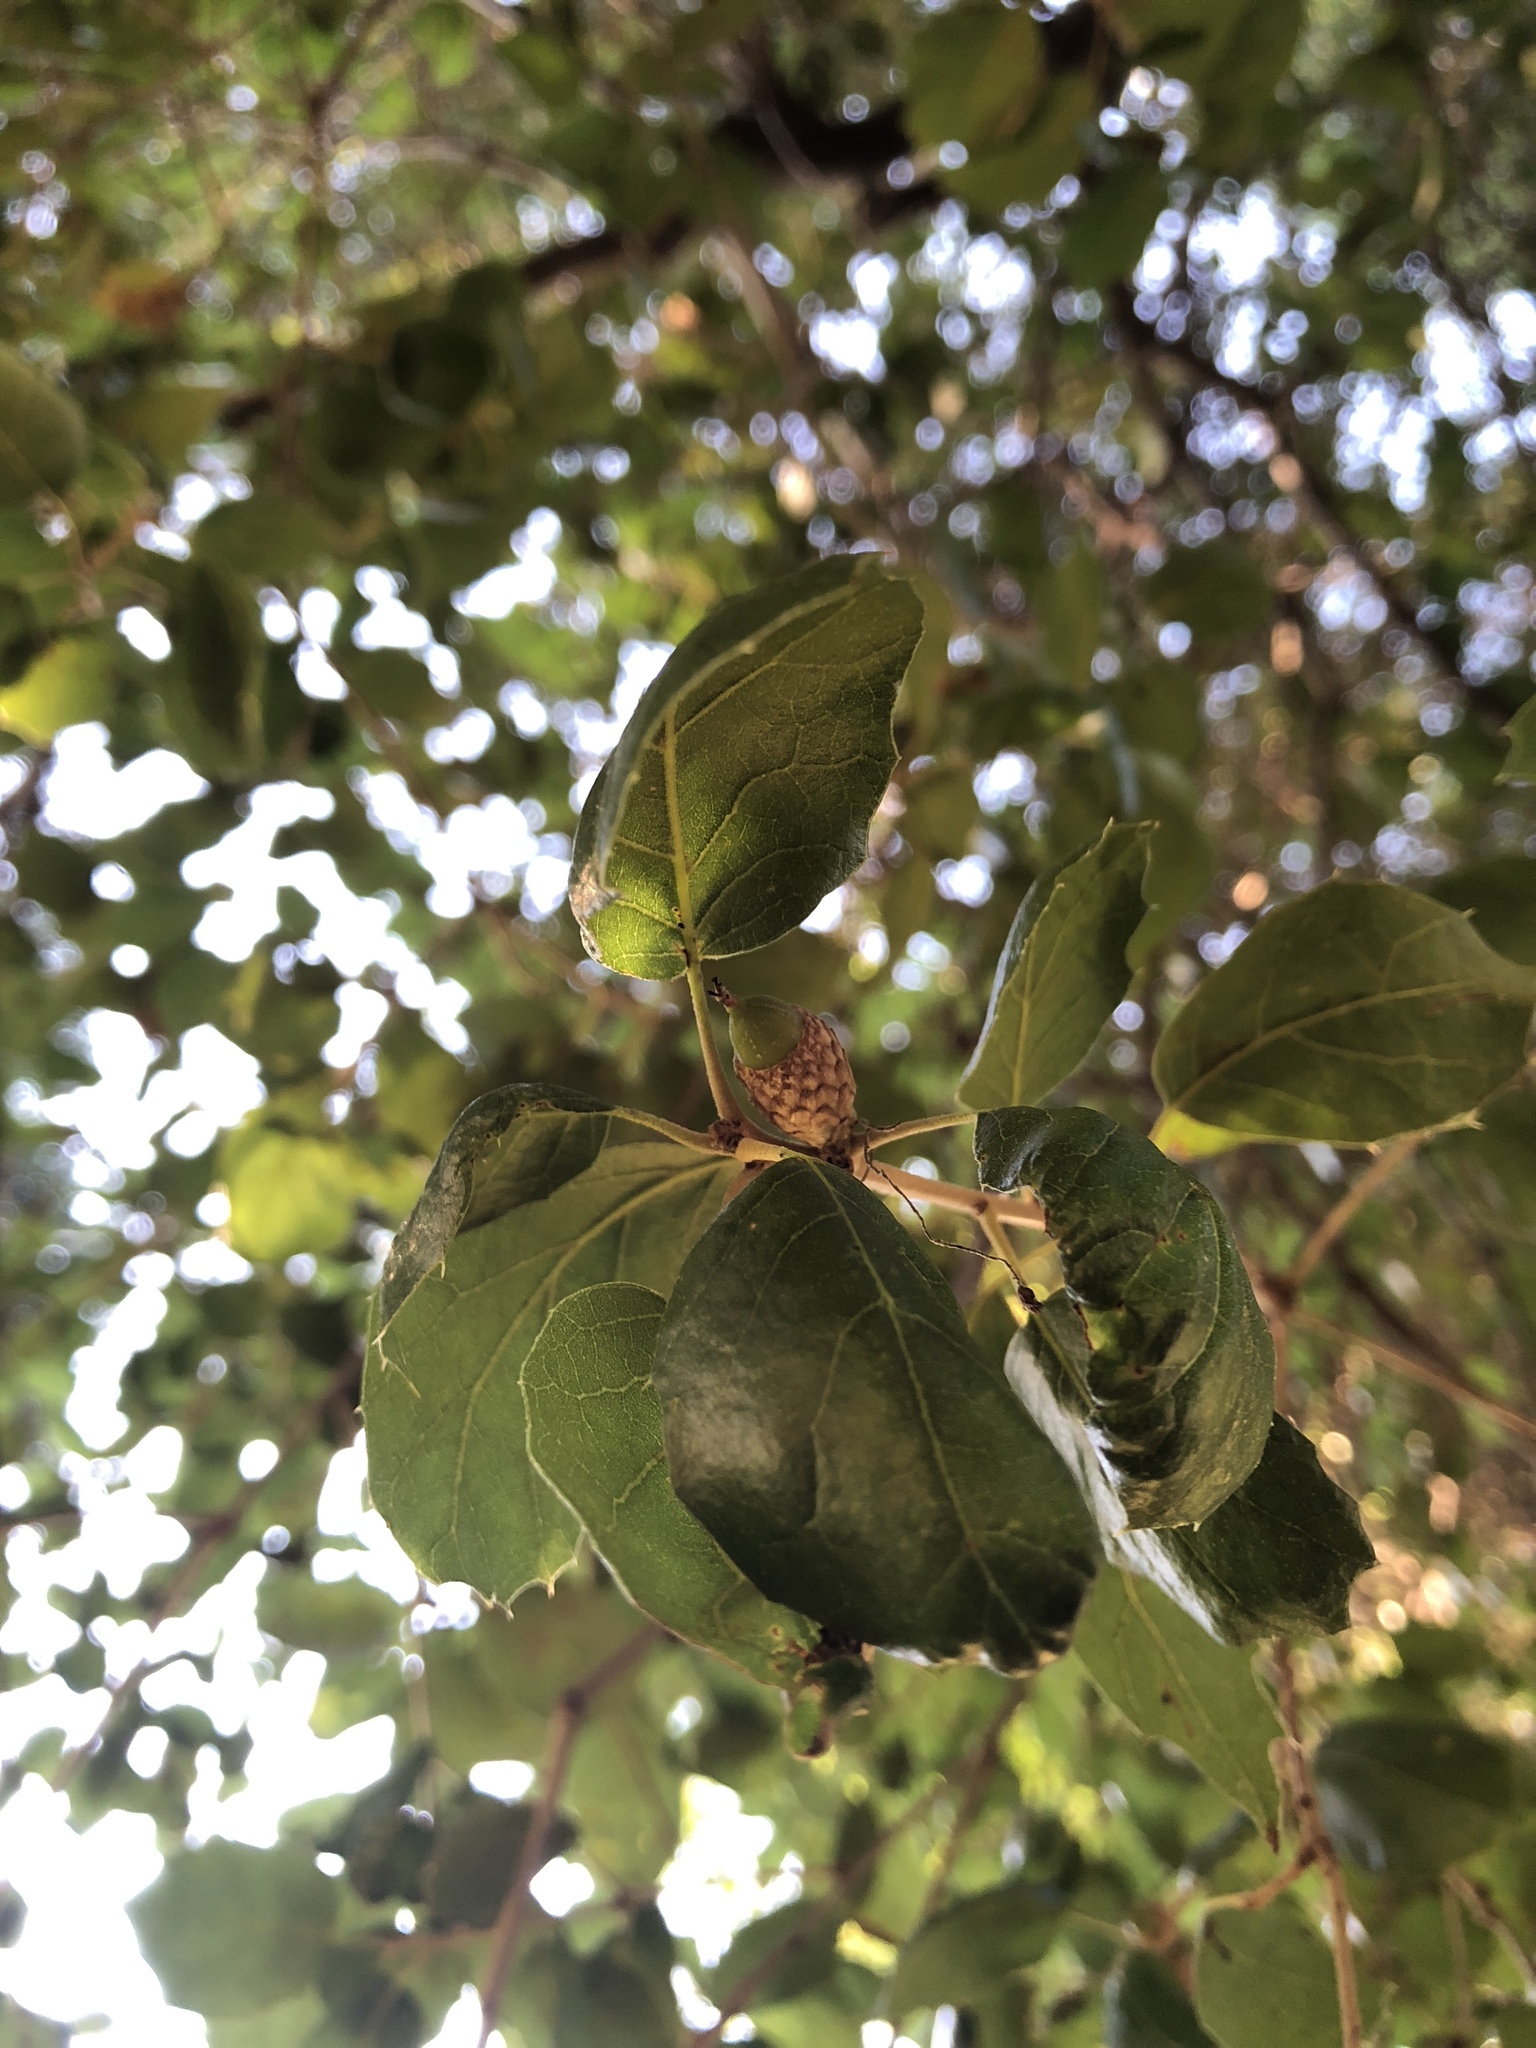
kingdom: Plantae
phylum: Tracheophyta
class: Magnoliopsida
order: Fagales
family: Fagaceae
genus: Quercus
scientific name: Quercus agrifolia
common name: California live oak
